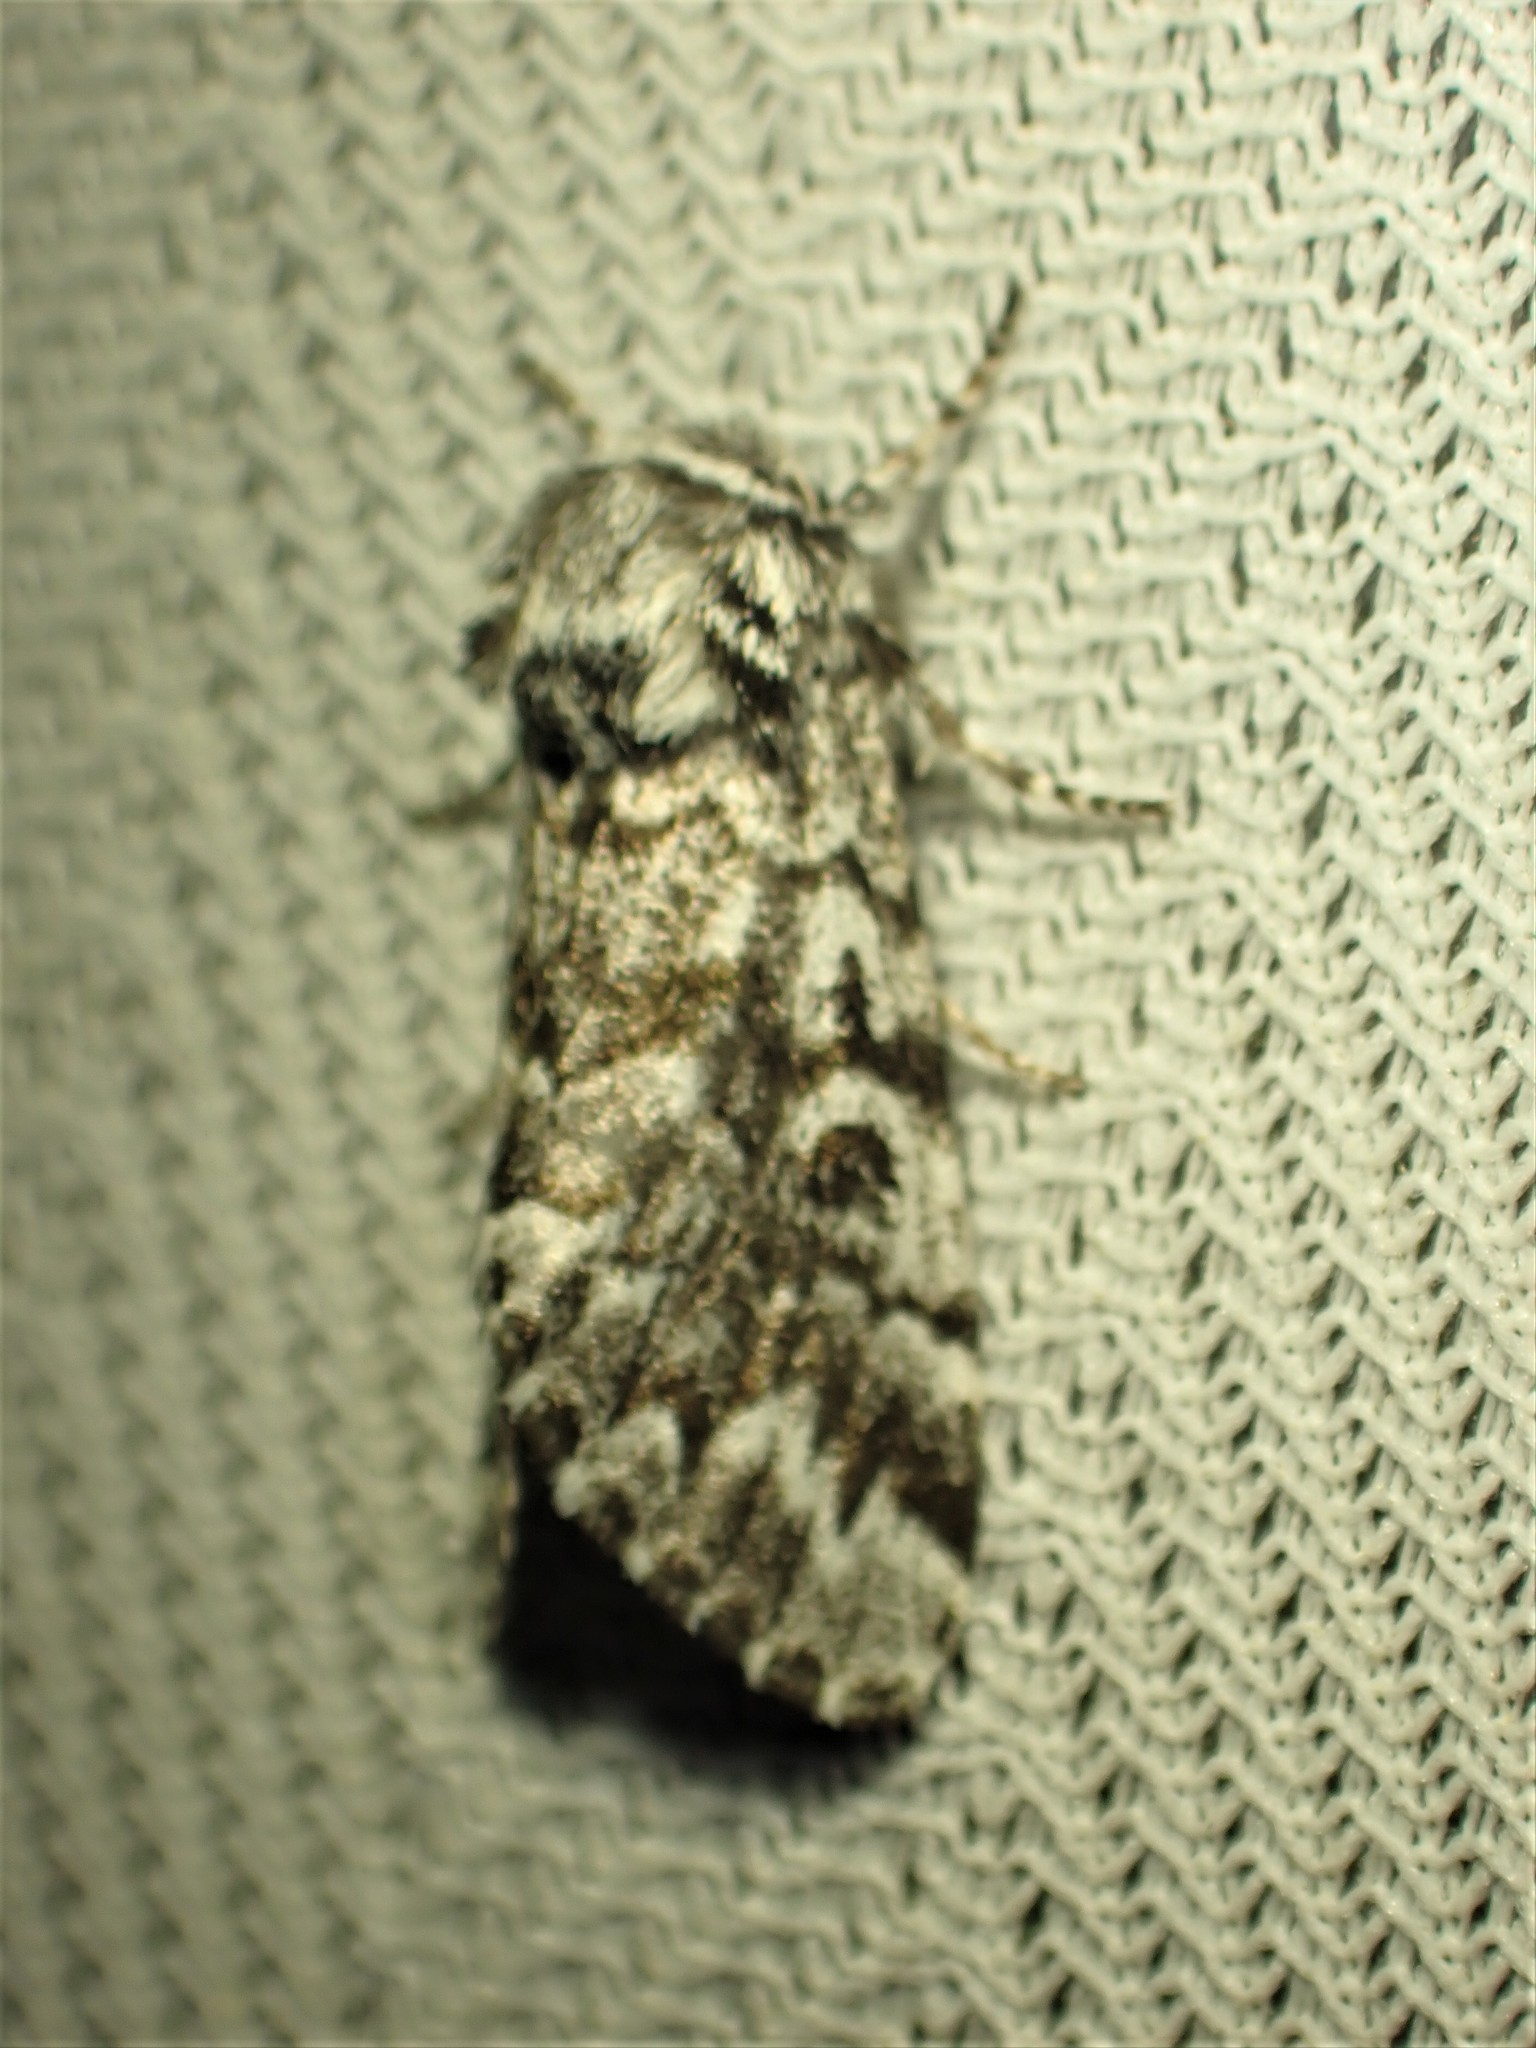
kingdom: Animalia
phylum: Arthropoda
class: Insecta
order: Lepidoptera
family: Noctuidae
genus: Panthea
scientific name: Panthea acronyctoides
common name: Black zigzag moth
